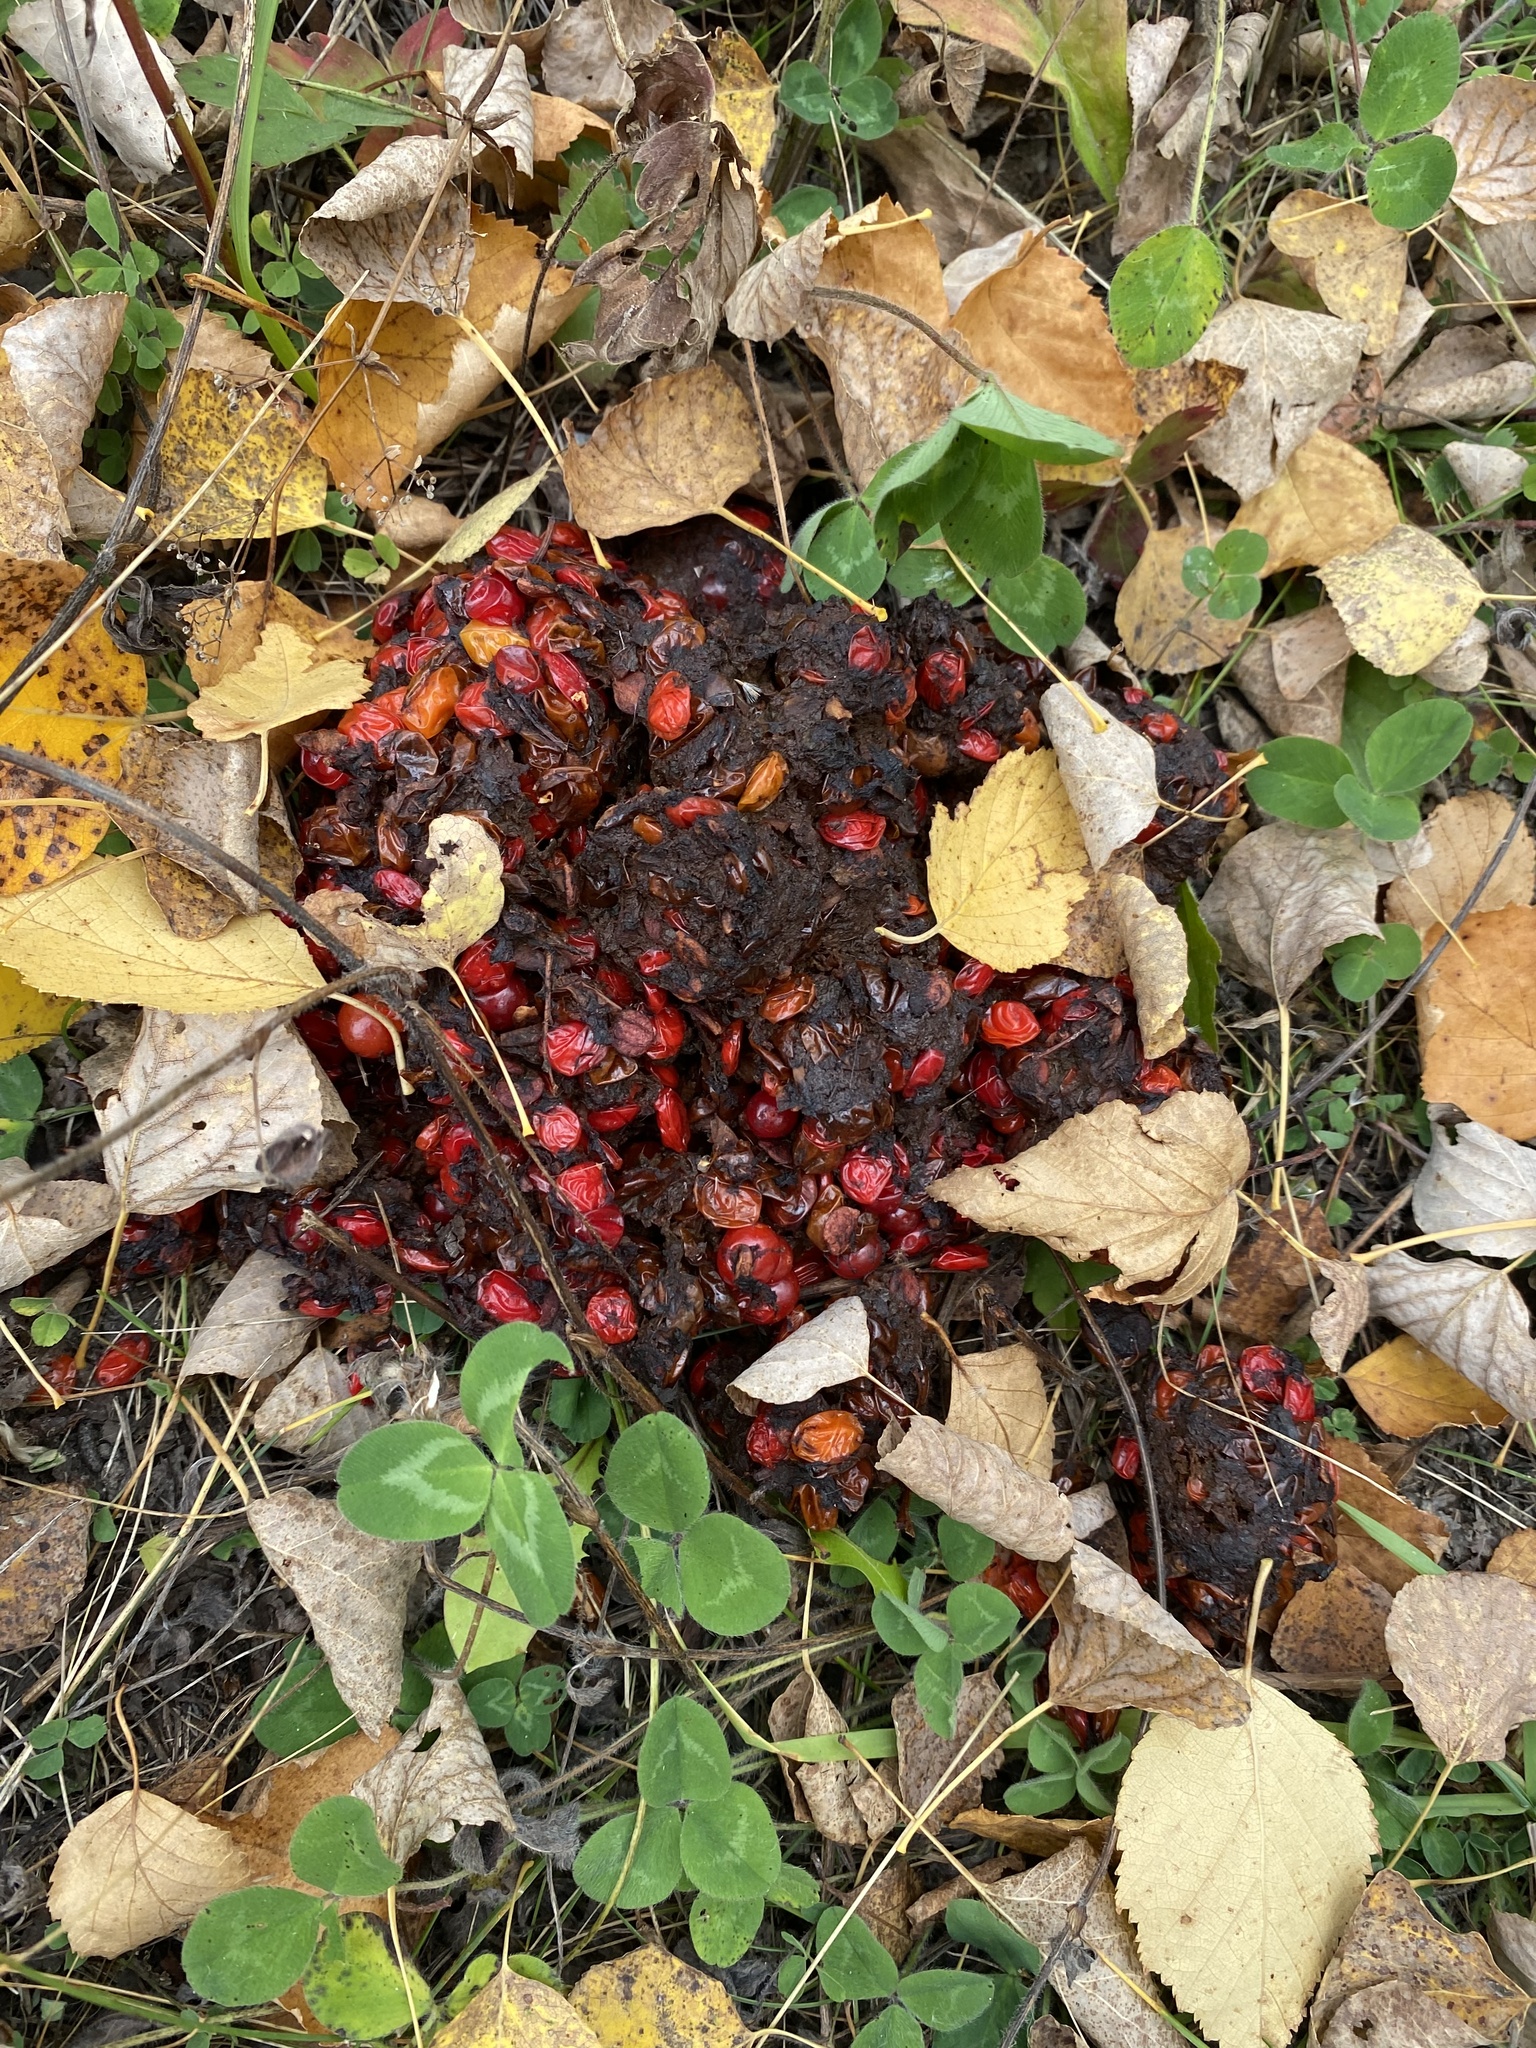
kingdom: Animalia
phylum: Chordata
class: Mammalia
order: Carnivora
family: Ursidae
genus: Ursus
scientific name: Ursus americanus
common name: American black bear
